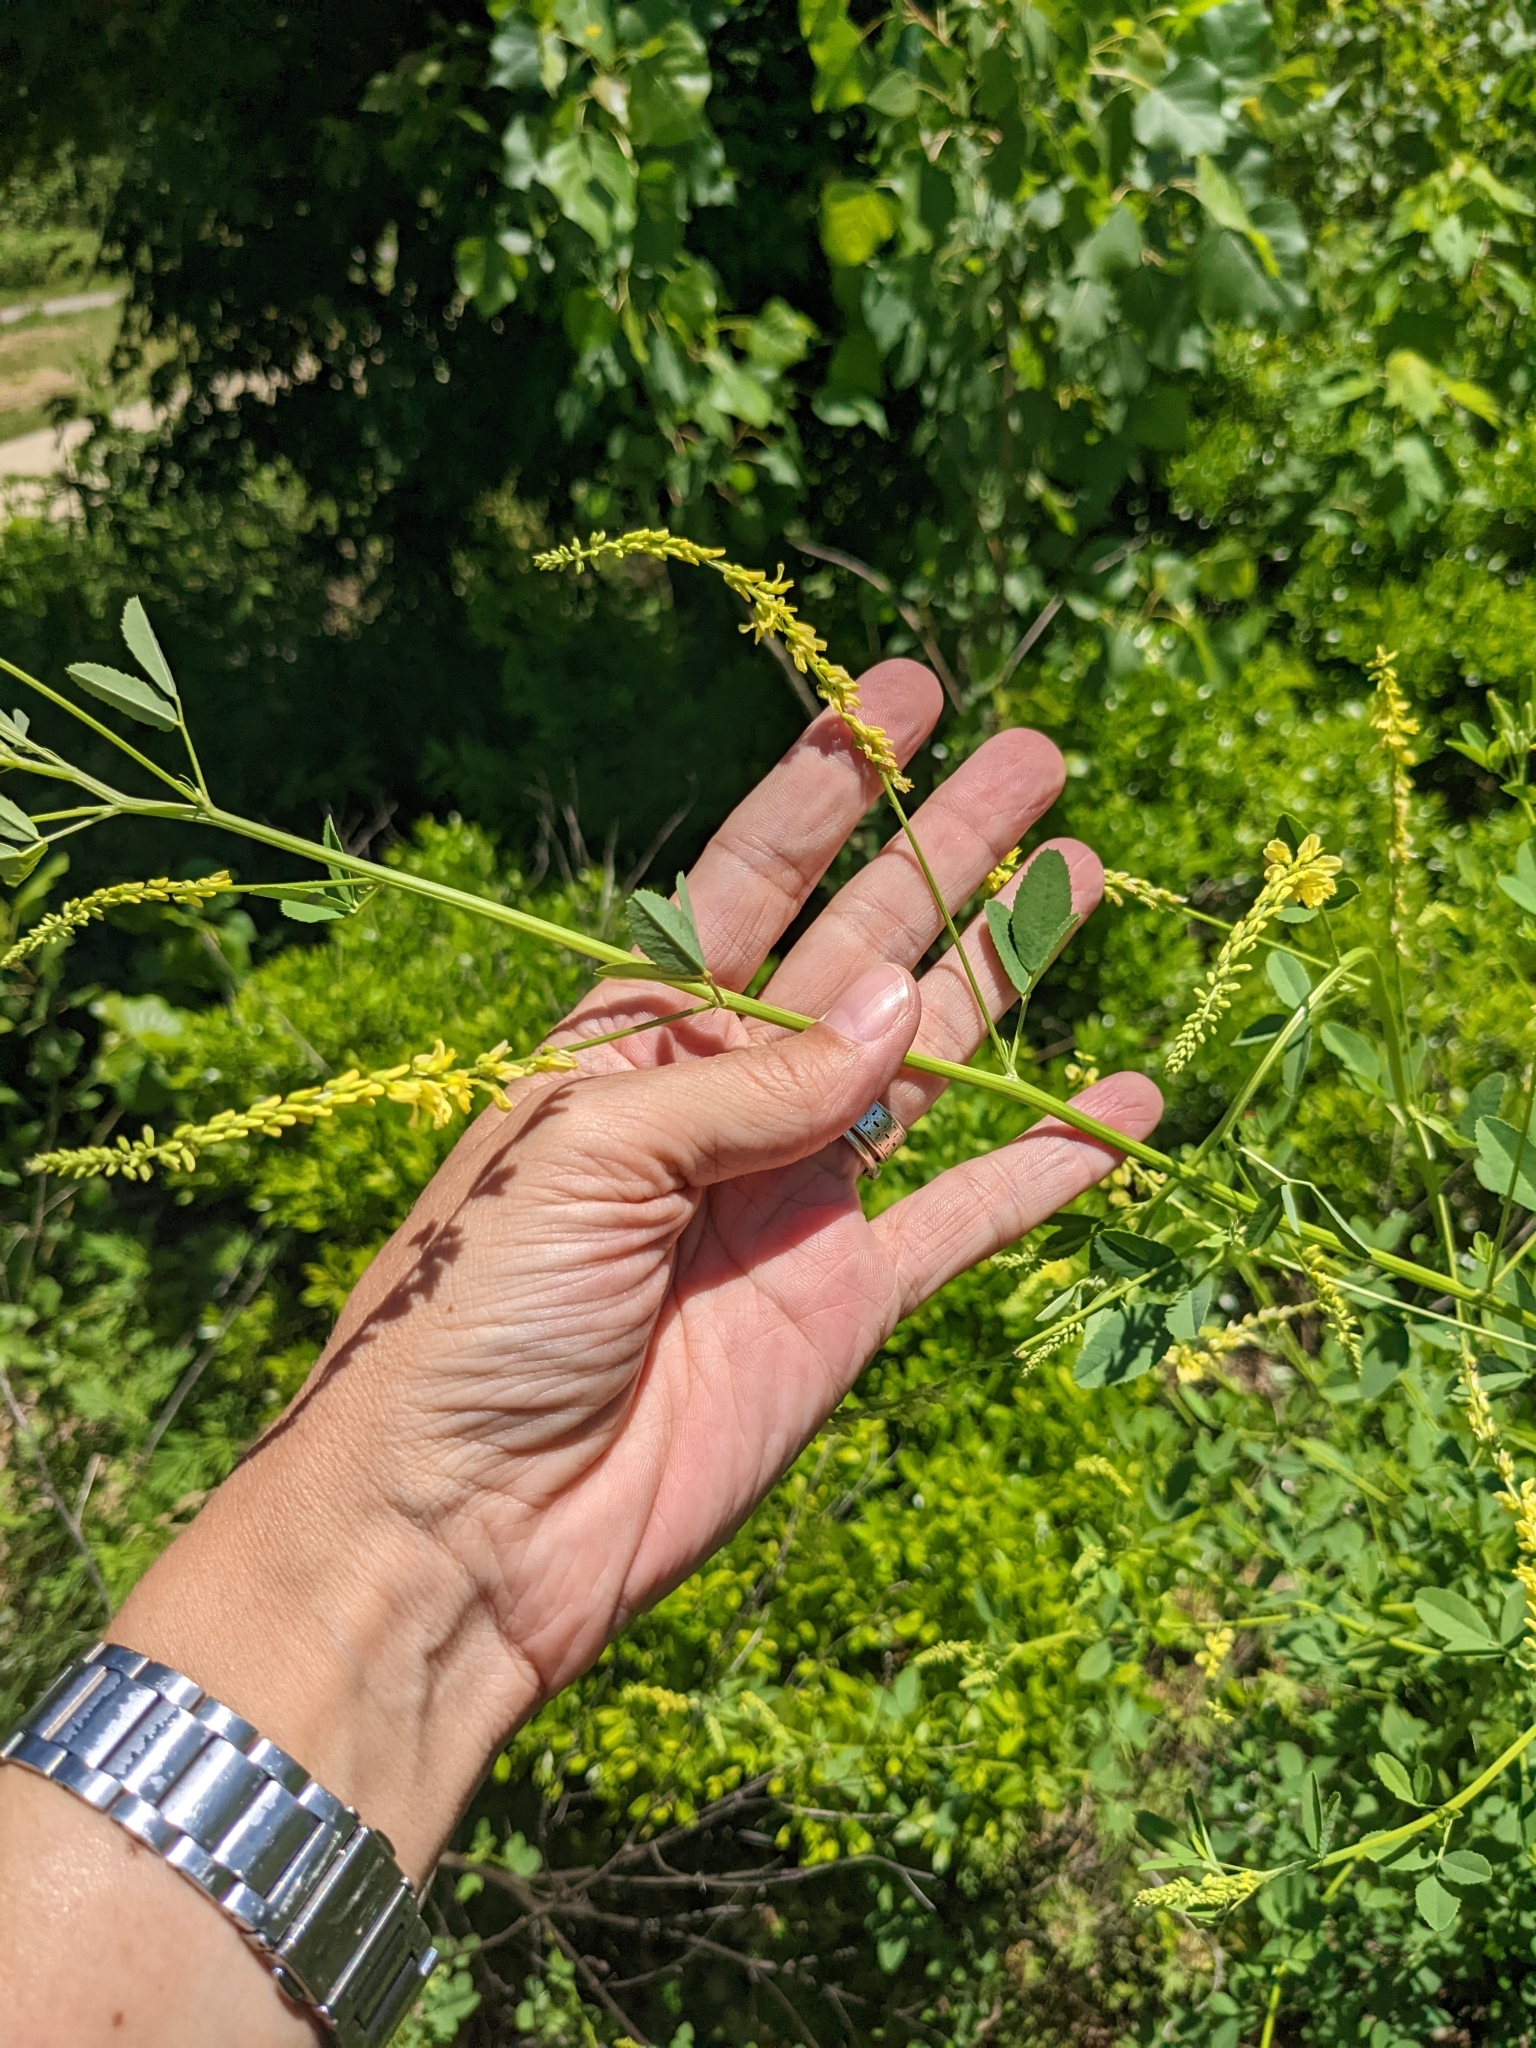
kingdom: Plantae
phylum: Tracheophyta
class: Magnoliopsida
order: Fabales
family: Fabaceae
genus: Melilotus
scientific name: Melilotus officinalis
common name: Sweetclover
